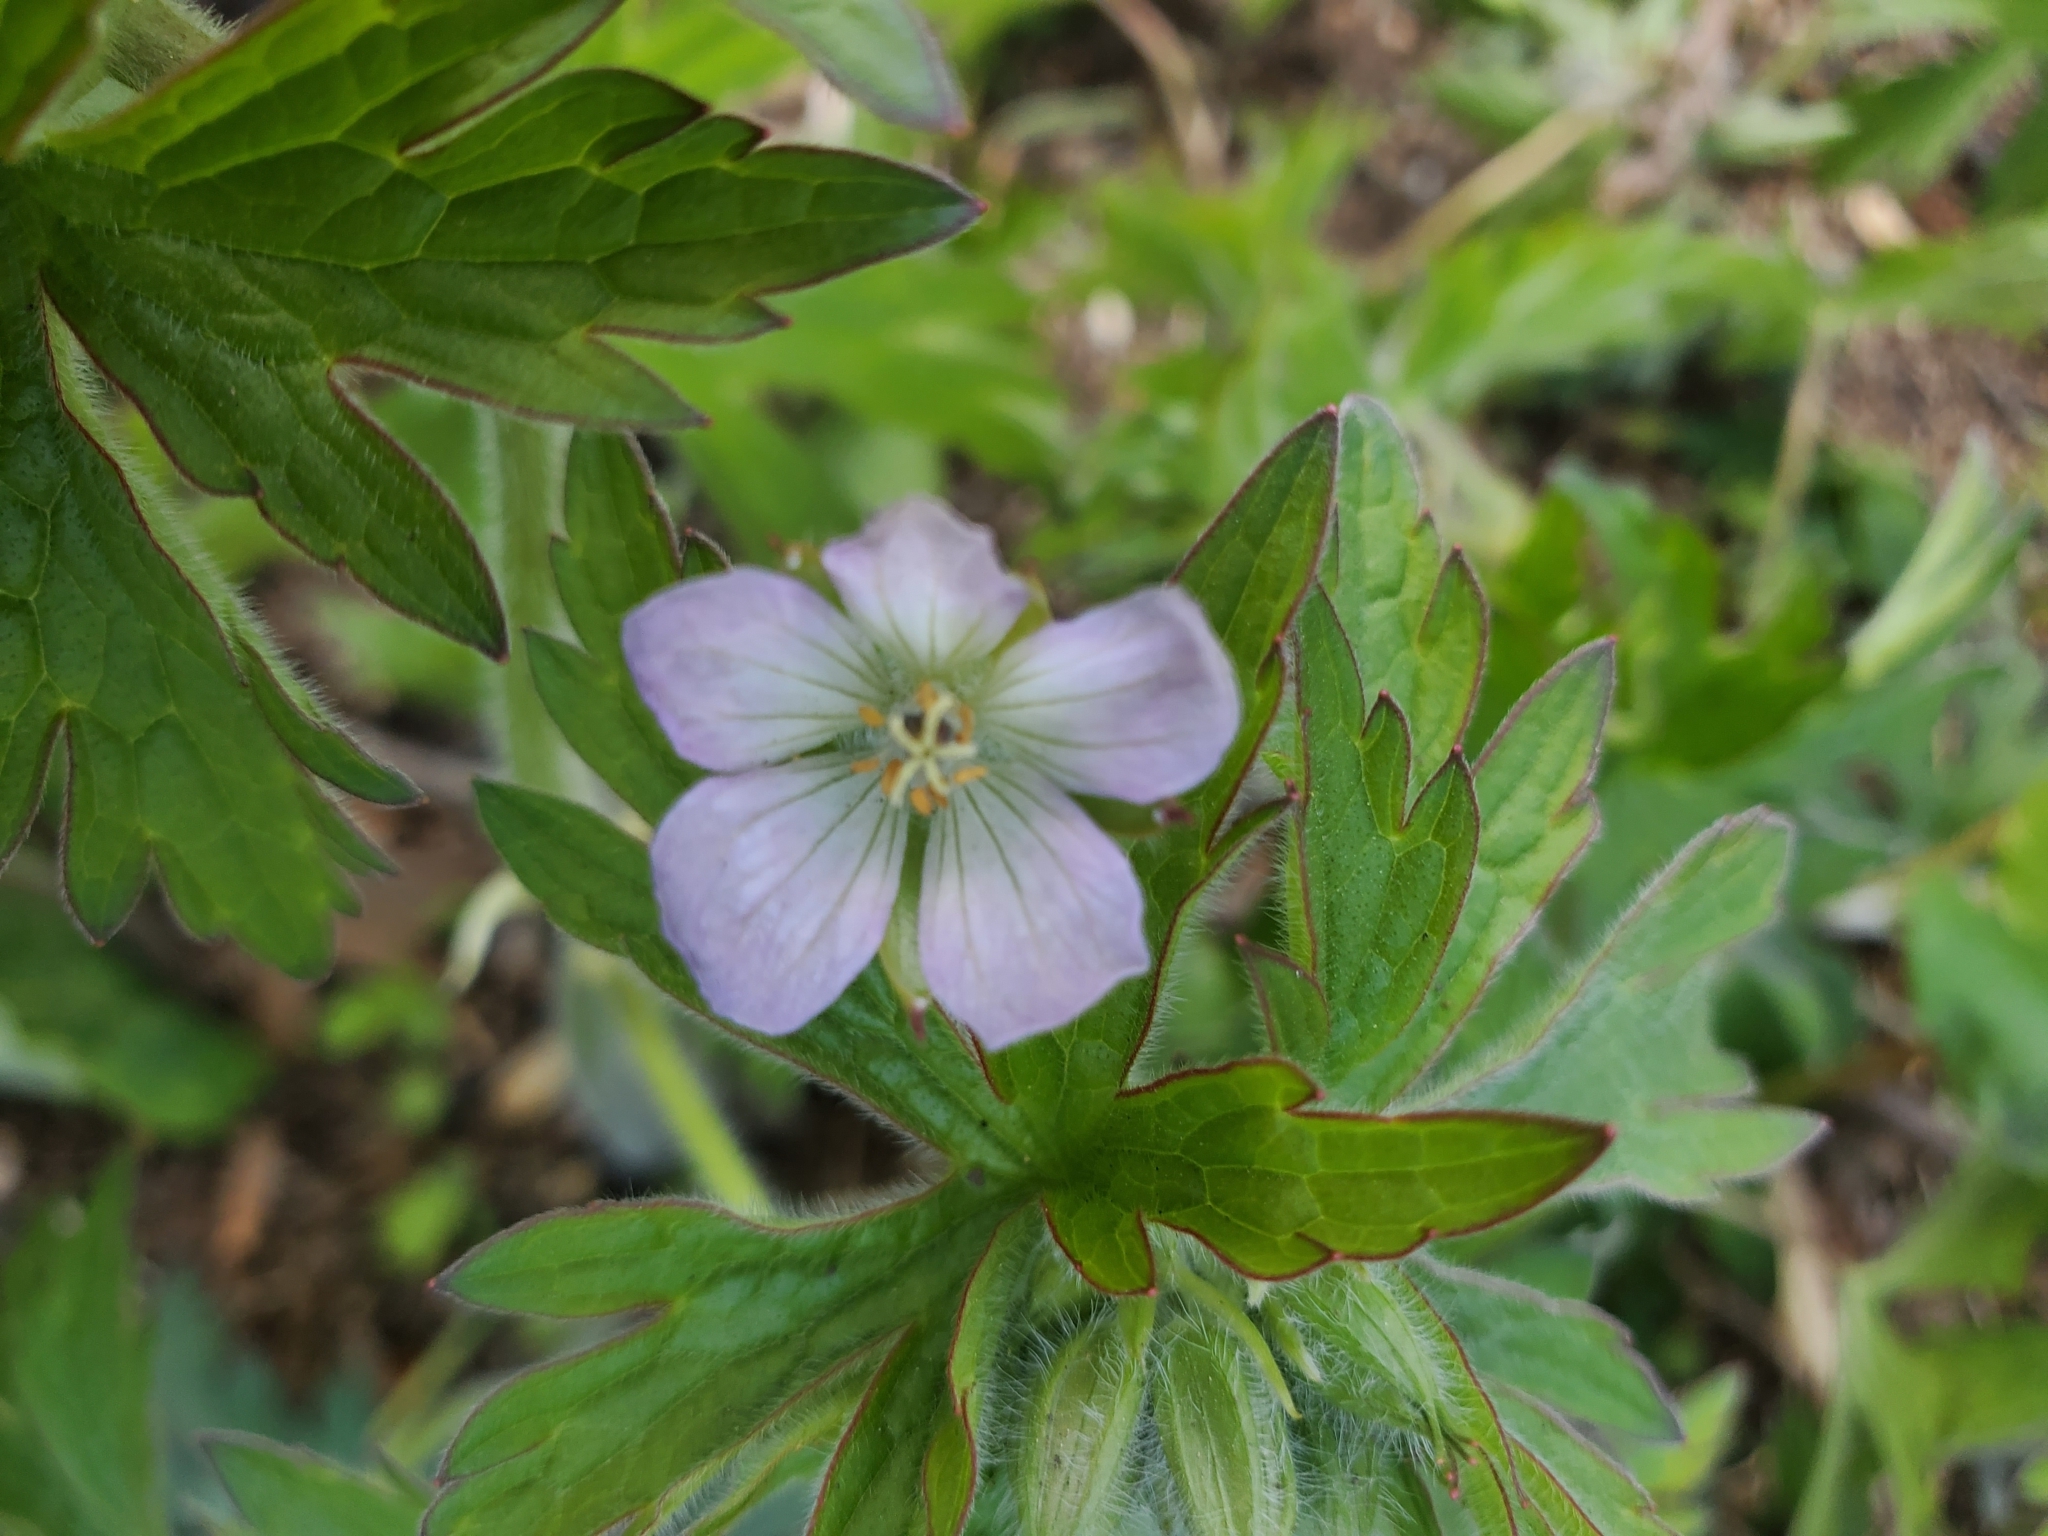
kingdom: Plantae
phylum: Tracheophyta
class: Magnoliopsida
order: Geraniales
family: Geraniaceae
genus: Geranium
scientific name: Geranium maculatum
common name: Spotted geranium
